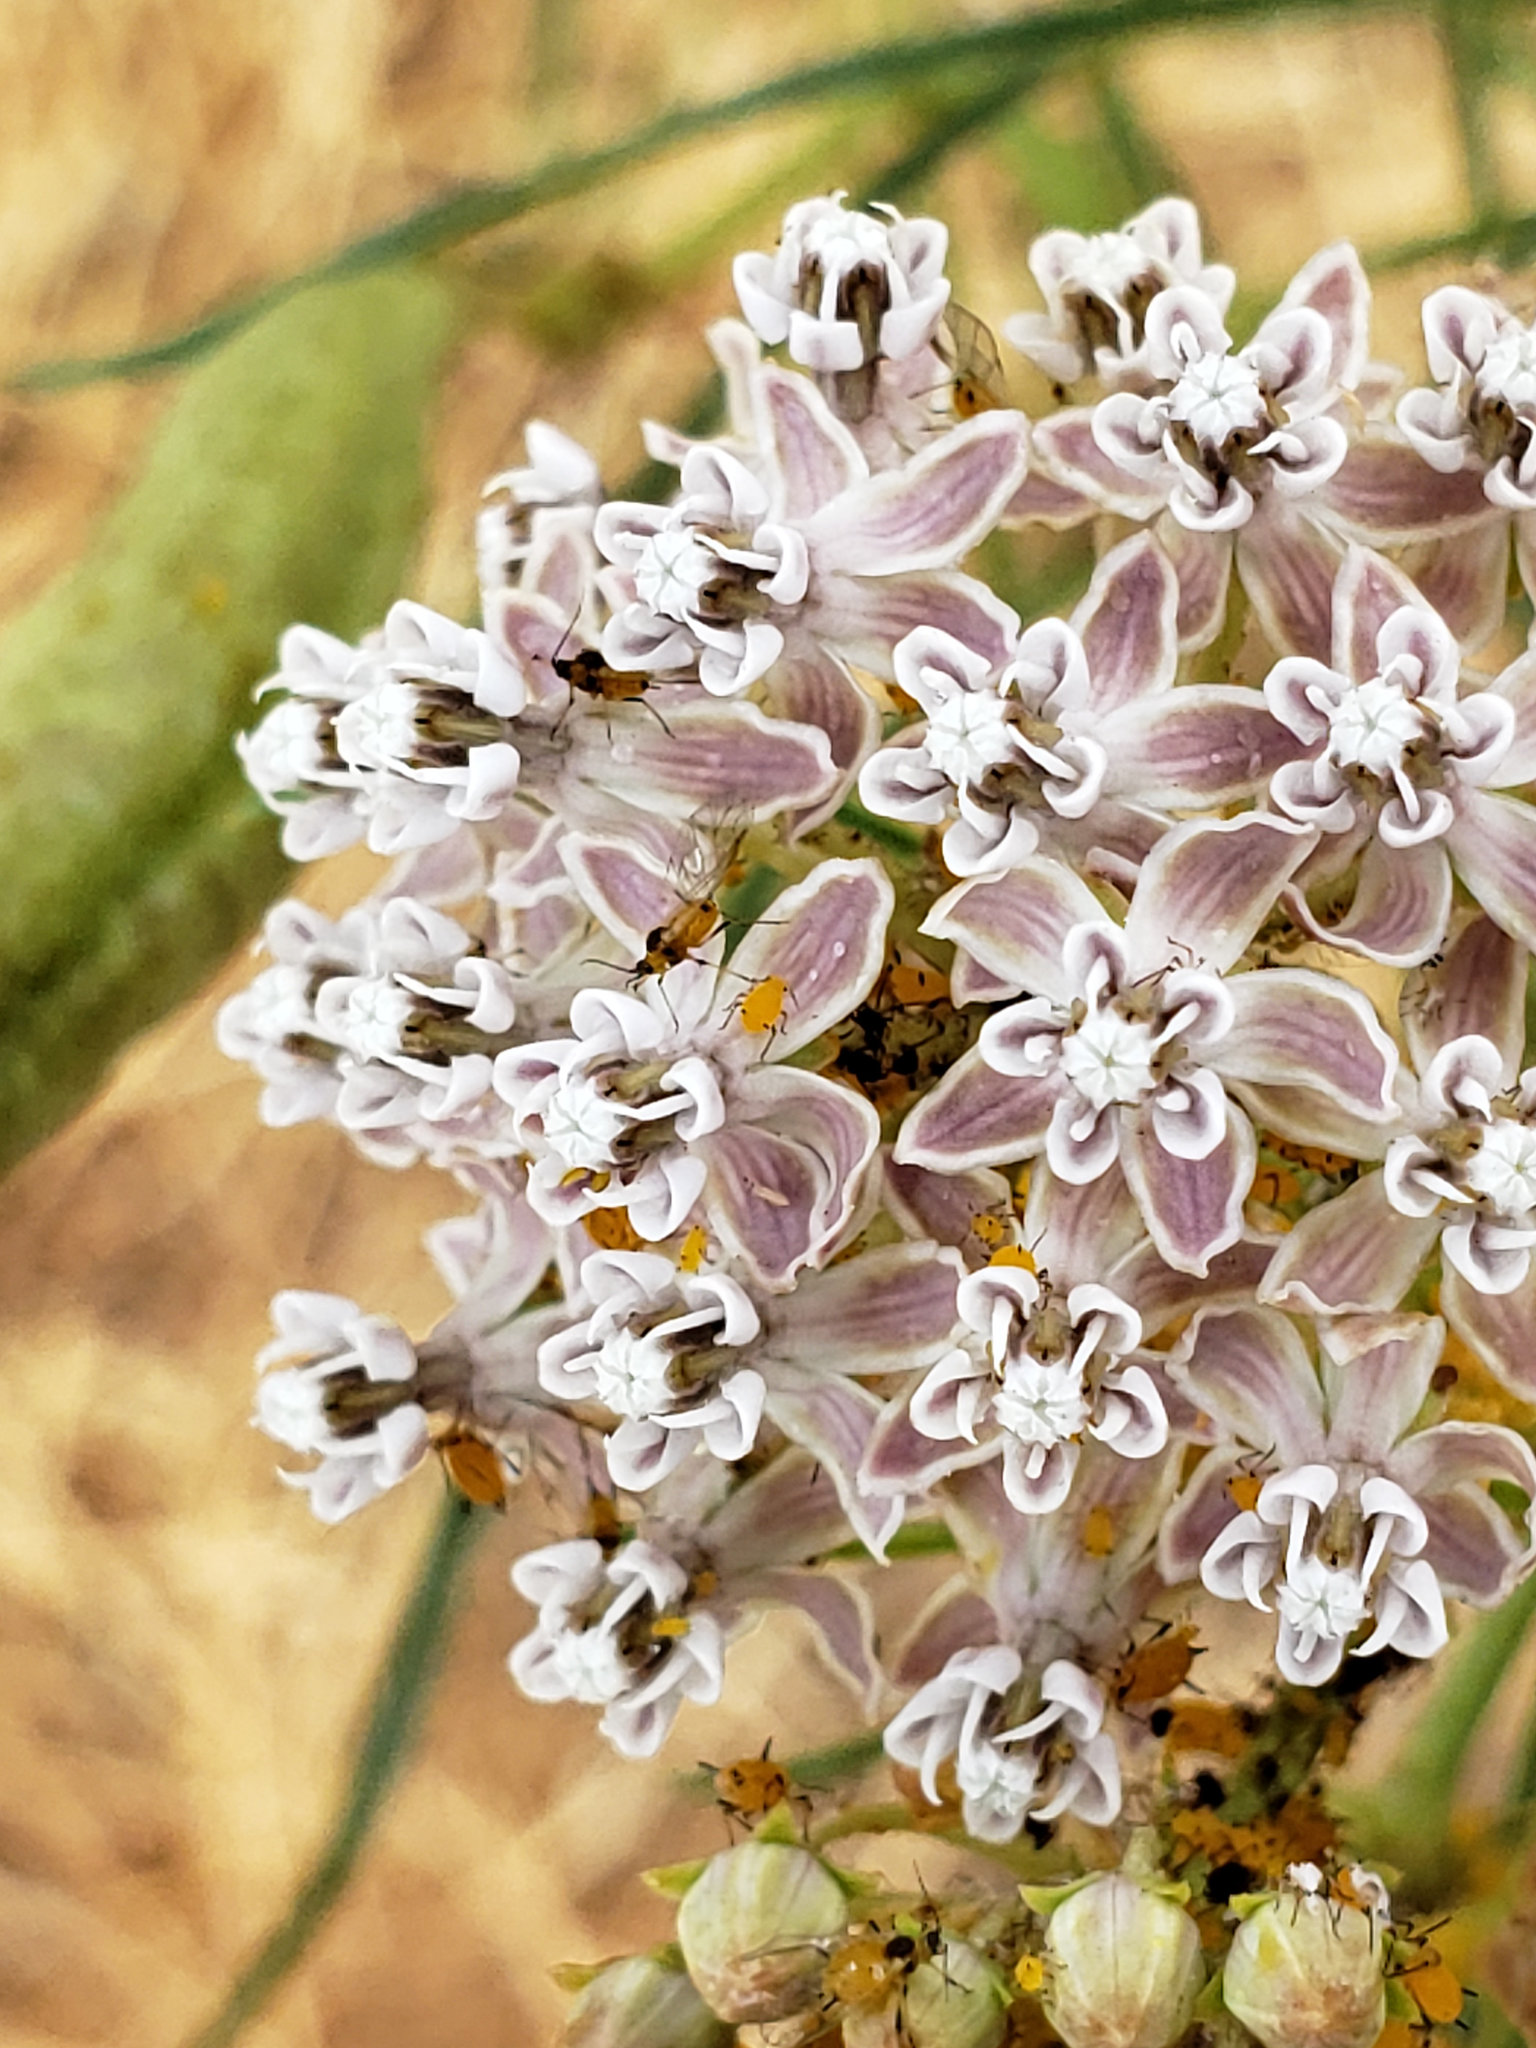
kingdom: Plantae
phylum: Tracheophyta
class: Magnoliopsida
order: Gentianales
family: Apocynaceae
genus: Asclepias
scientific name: Asclepias fascicularis
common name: Mexican milkweed
